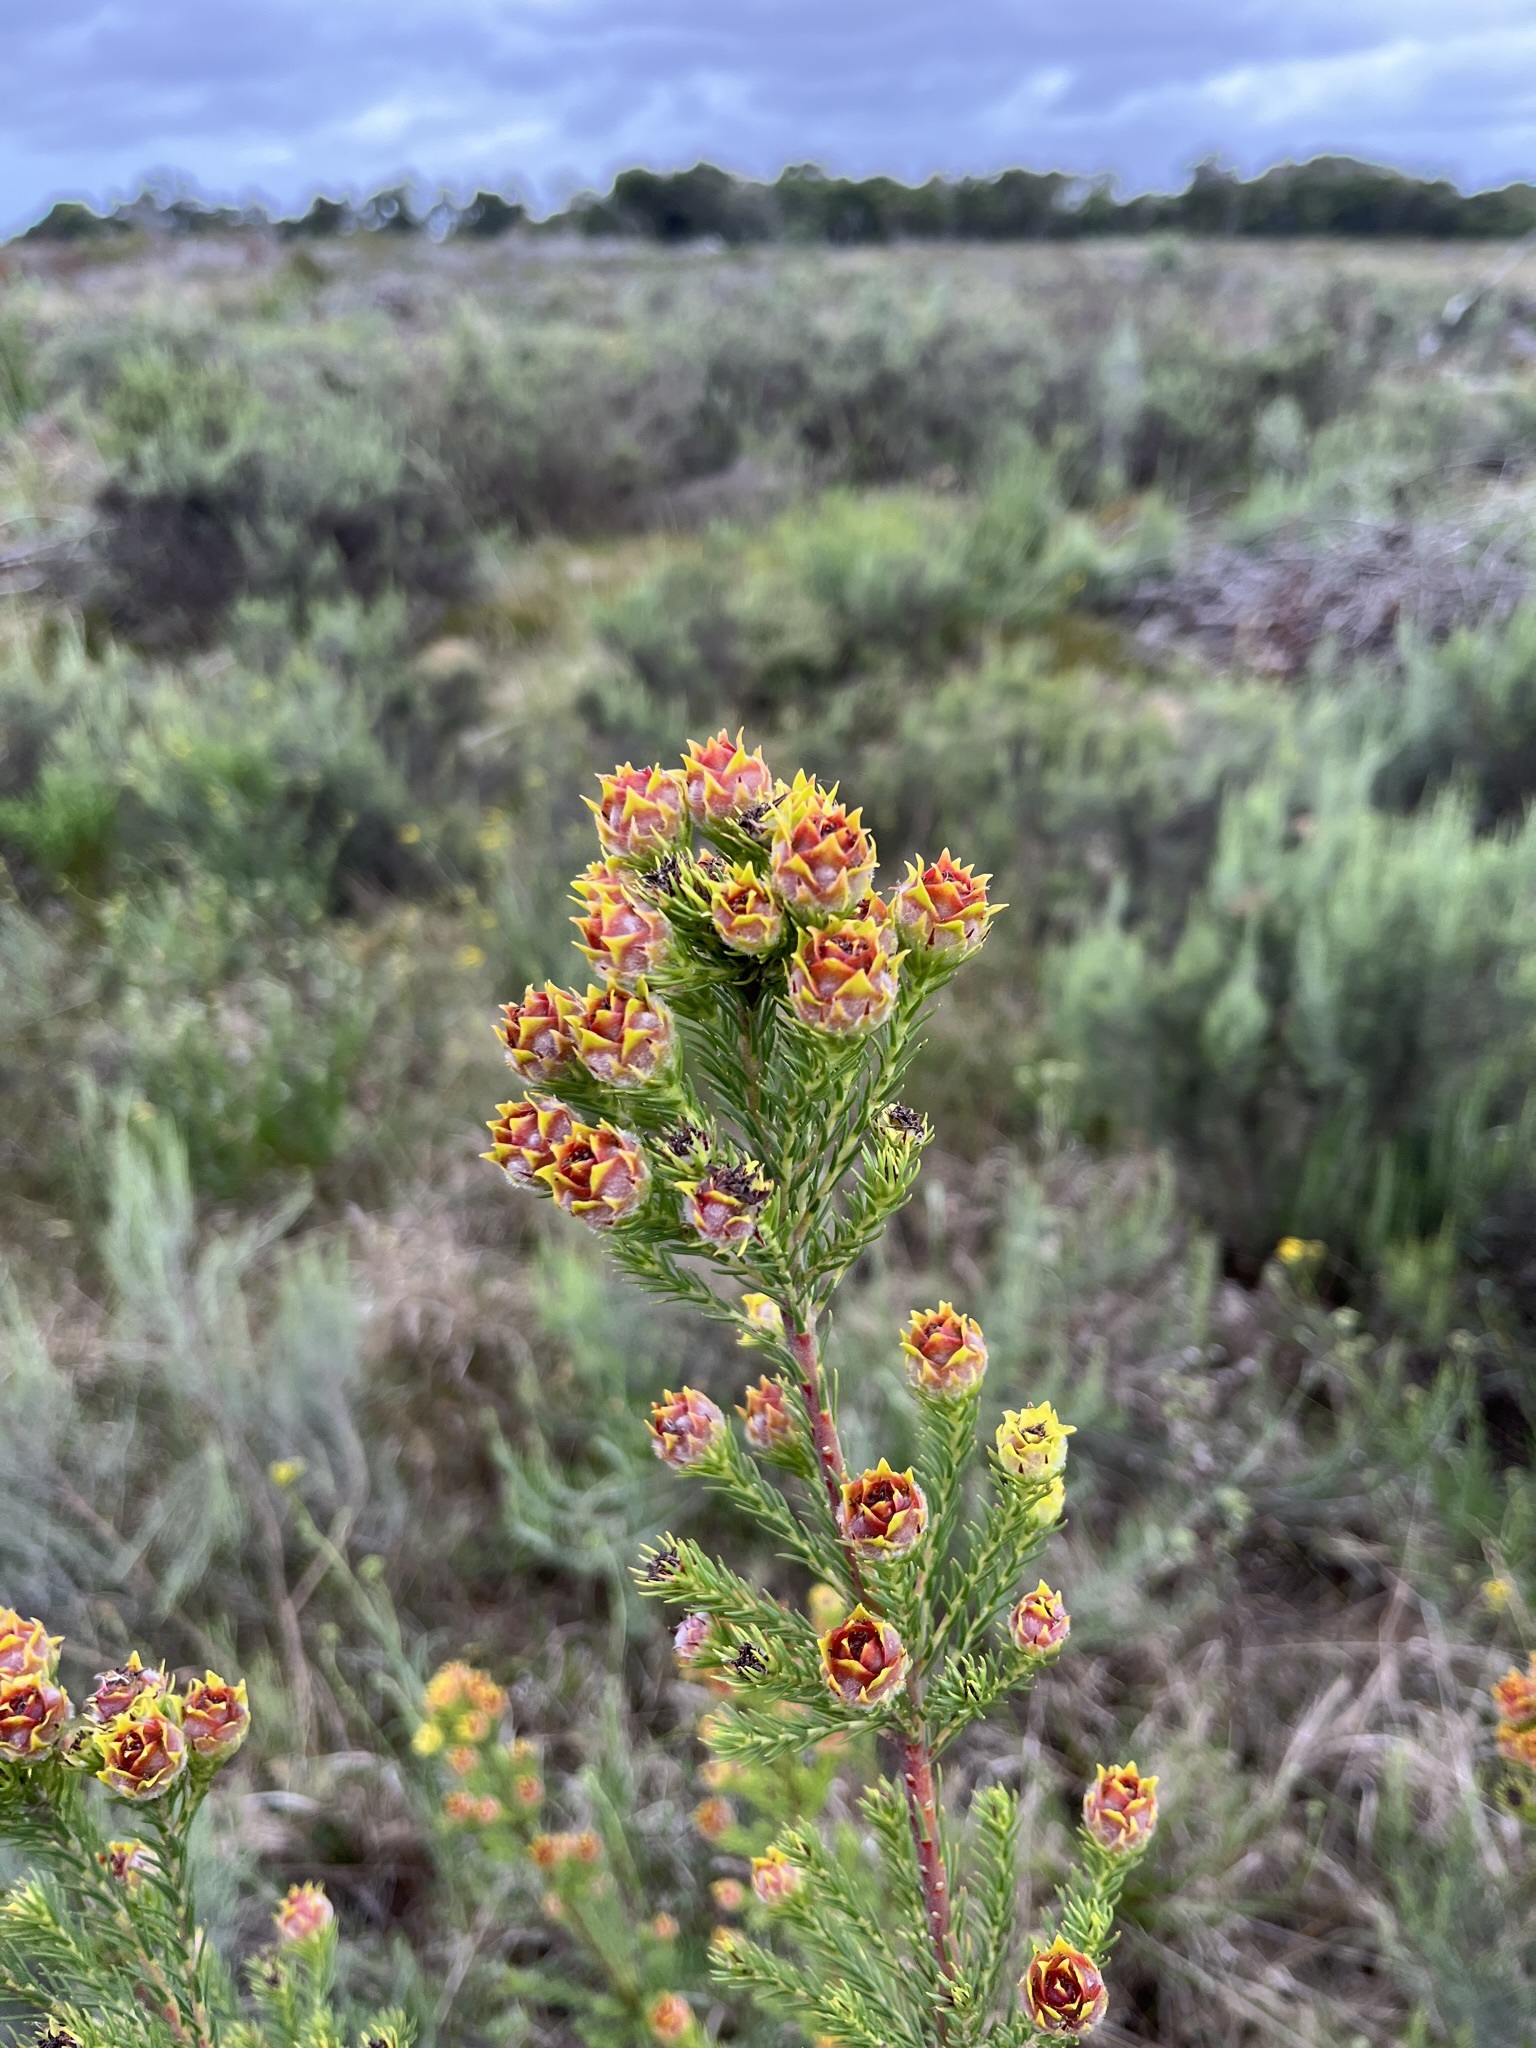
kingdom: Plantae
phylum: Tracheophyta
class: Magnoliopsida
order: Proteales
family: Proteaceae
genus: Leucadendron
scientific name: Leucadendron laxum
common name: Bredasdorp conebush
